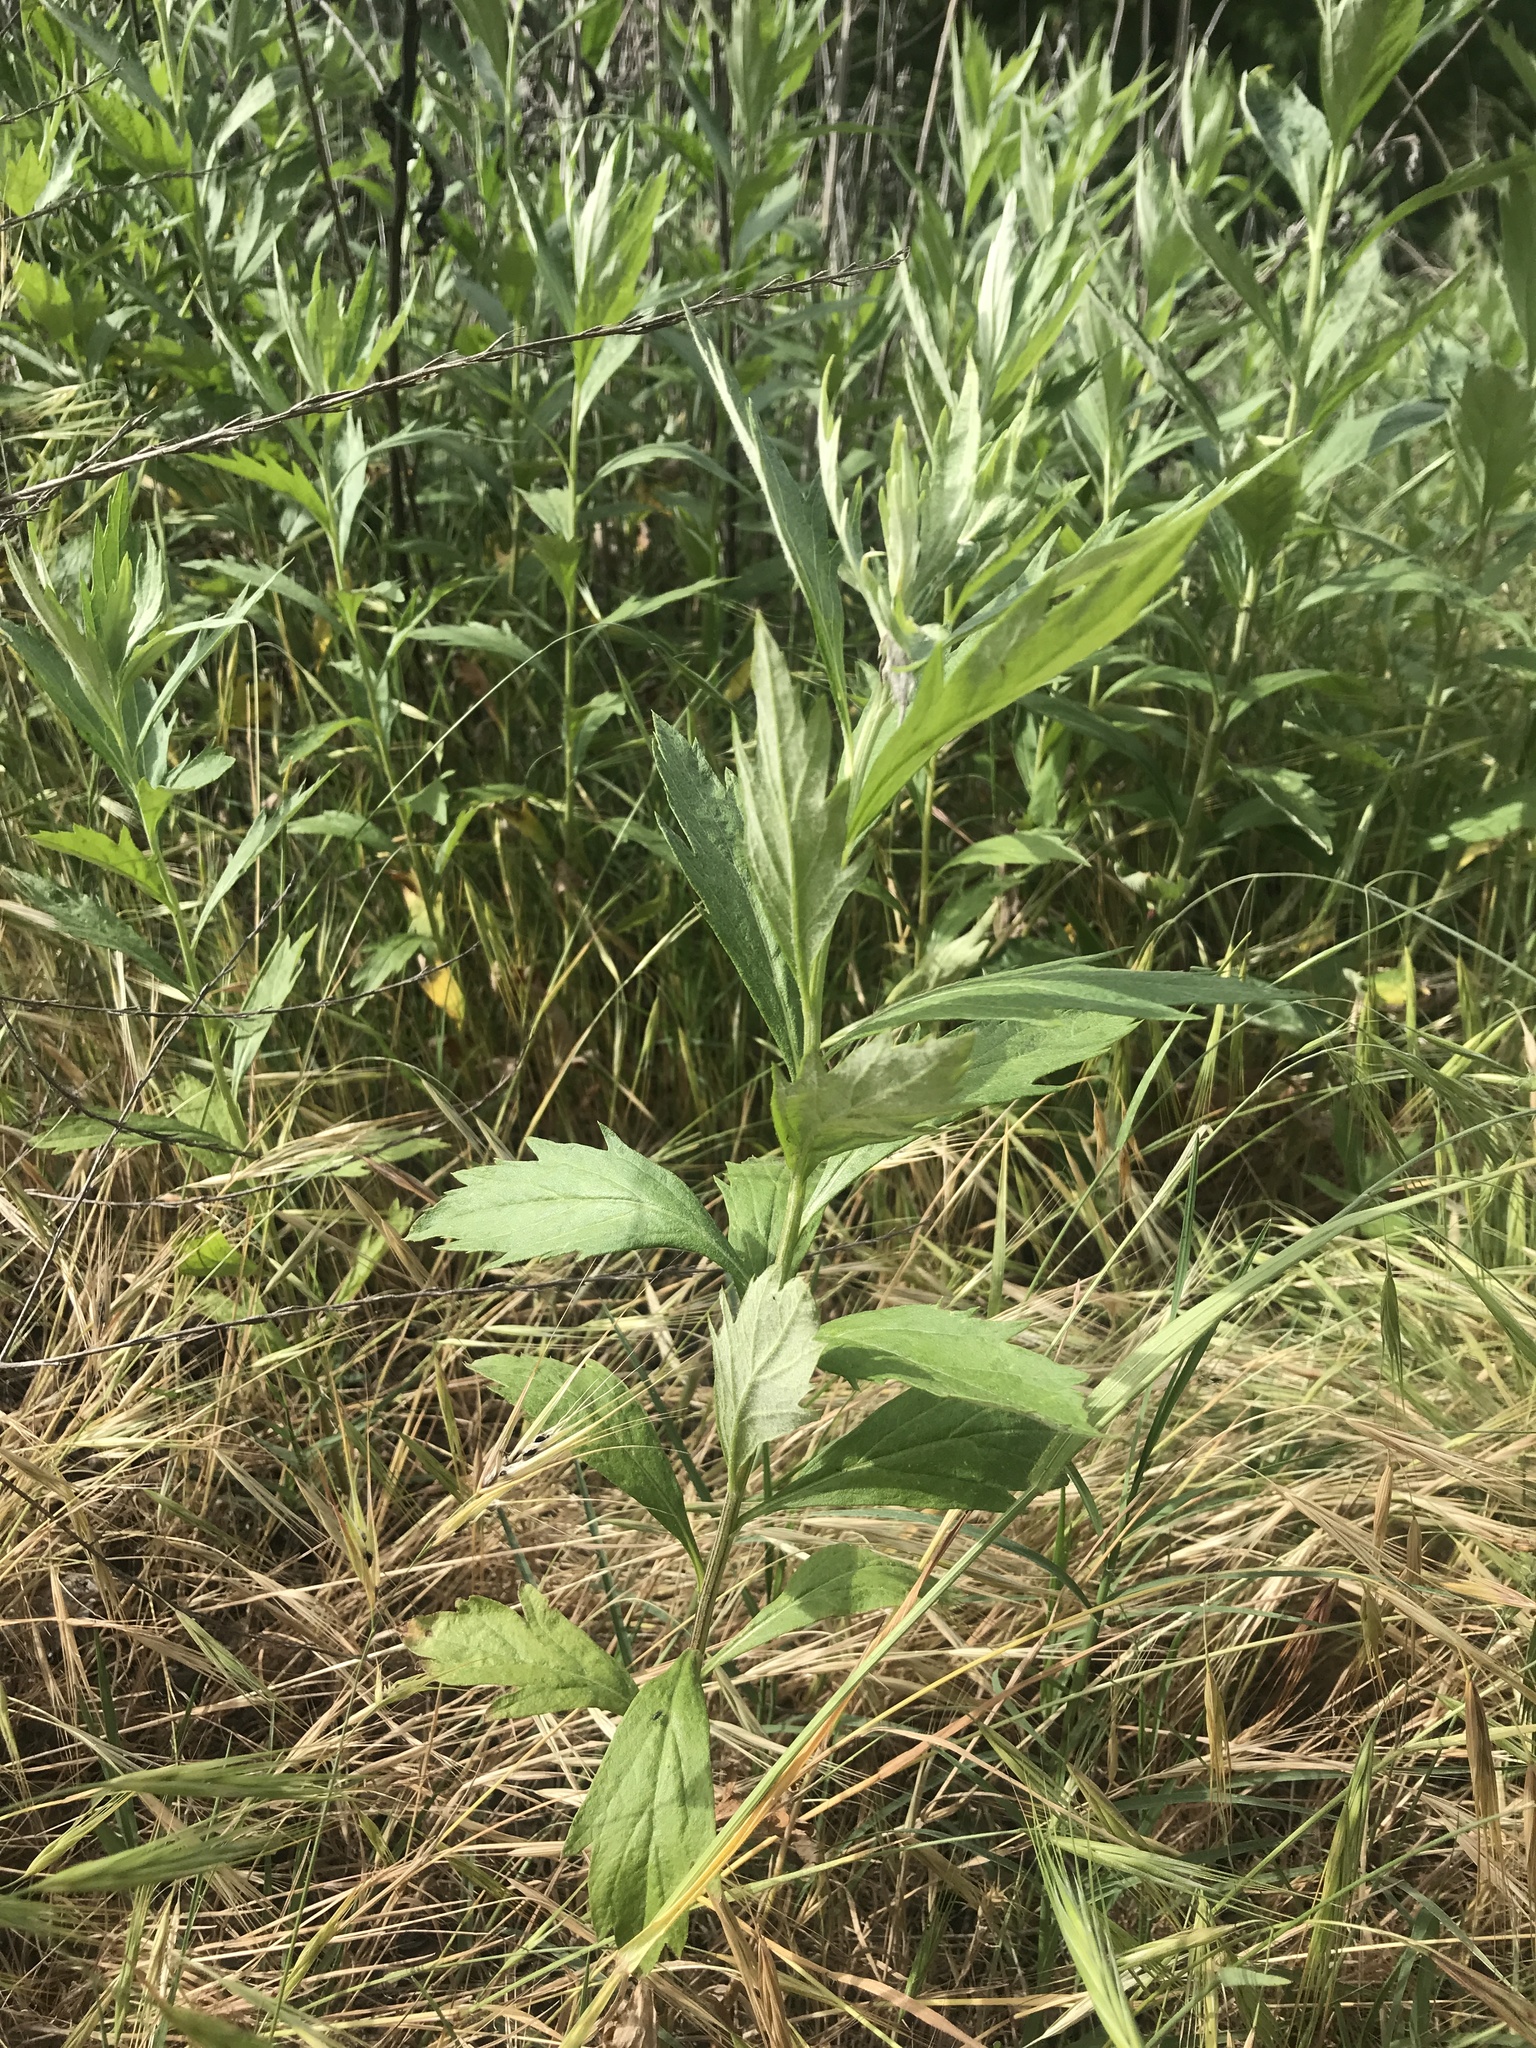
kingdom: Plantae
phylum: Tracheophyta
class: Magnoliopsida
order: Asterales
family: Asteraceae
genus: Artemisia
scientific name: Artemisia douglasiana
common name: Northwest mugwort
